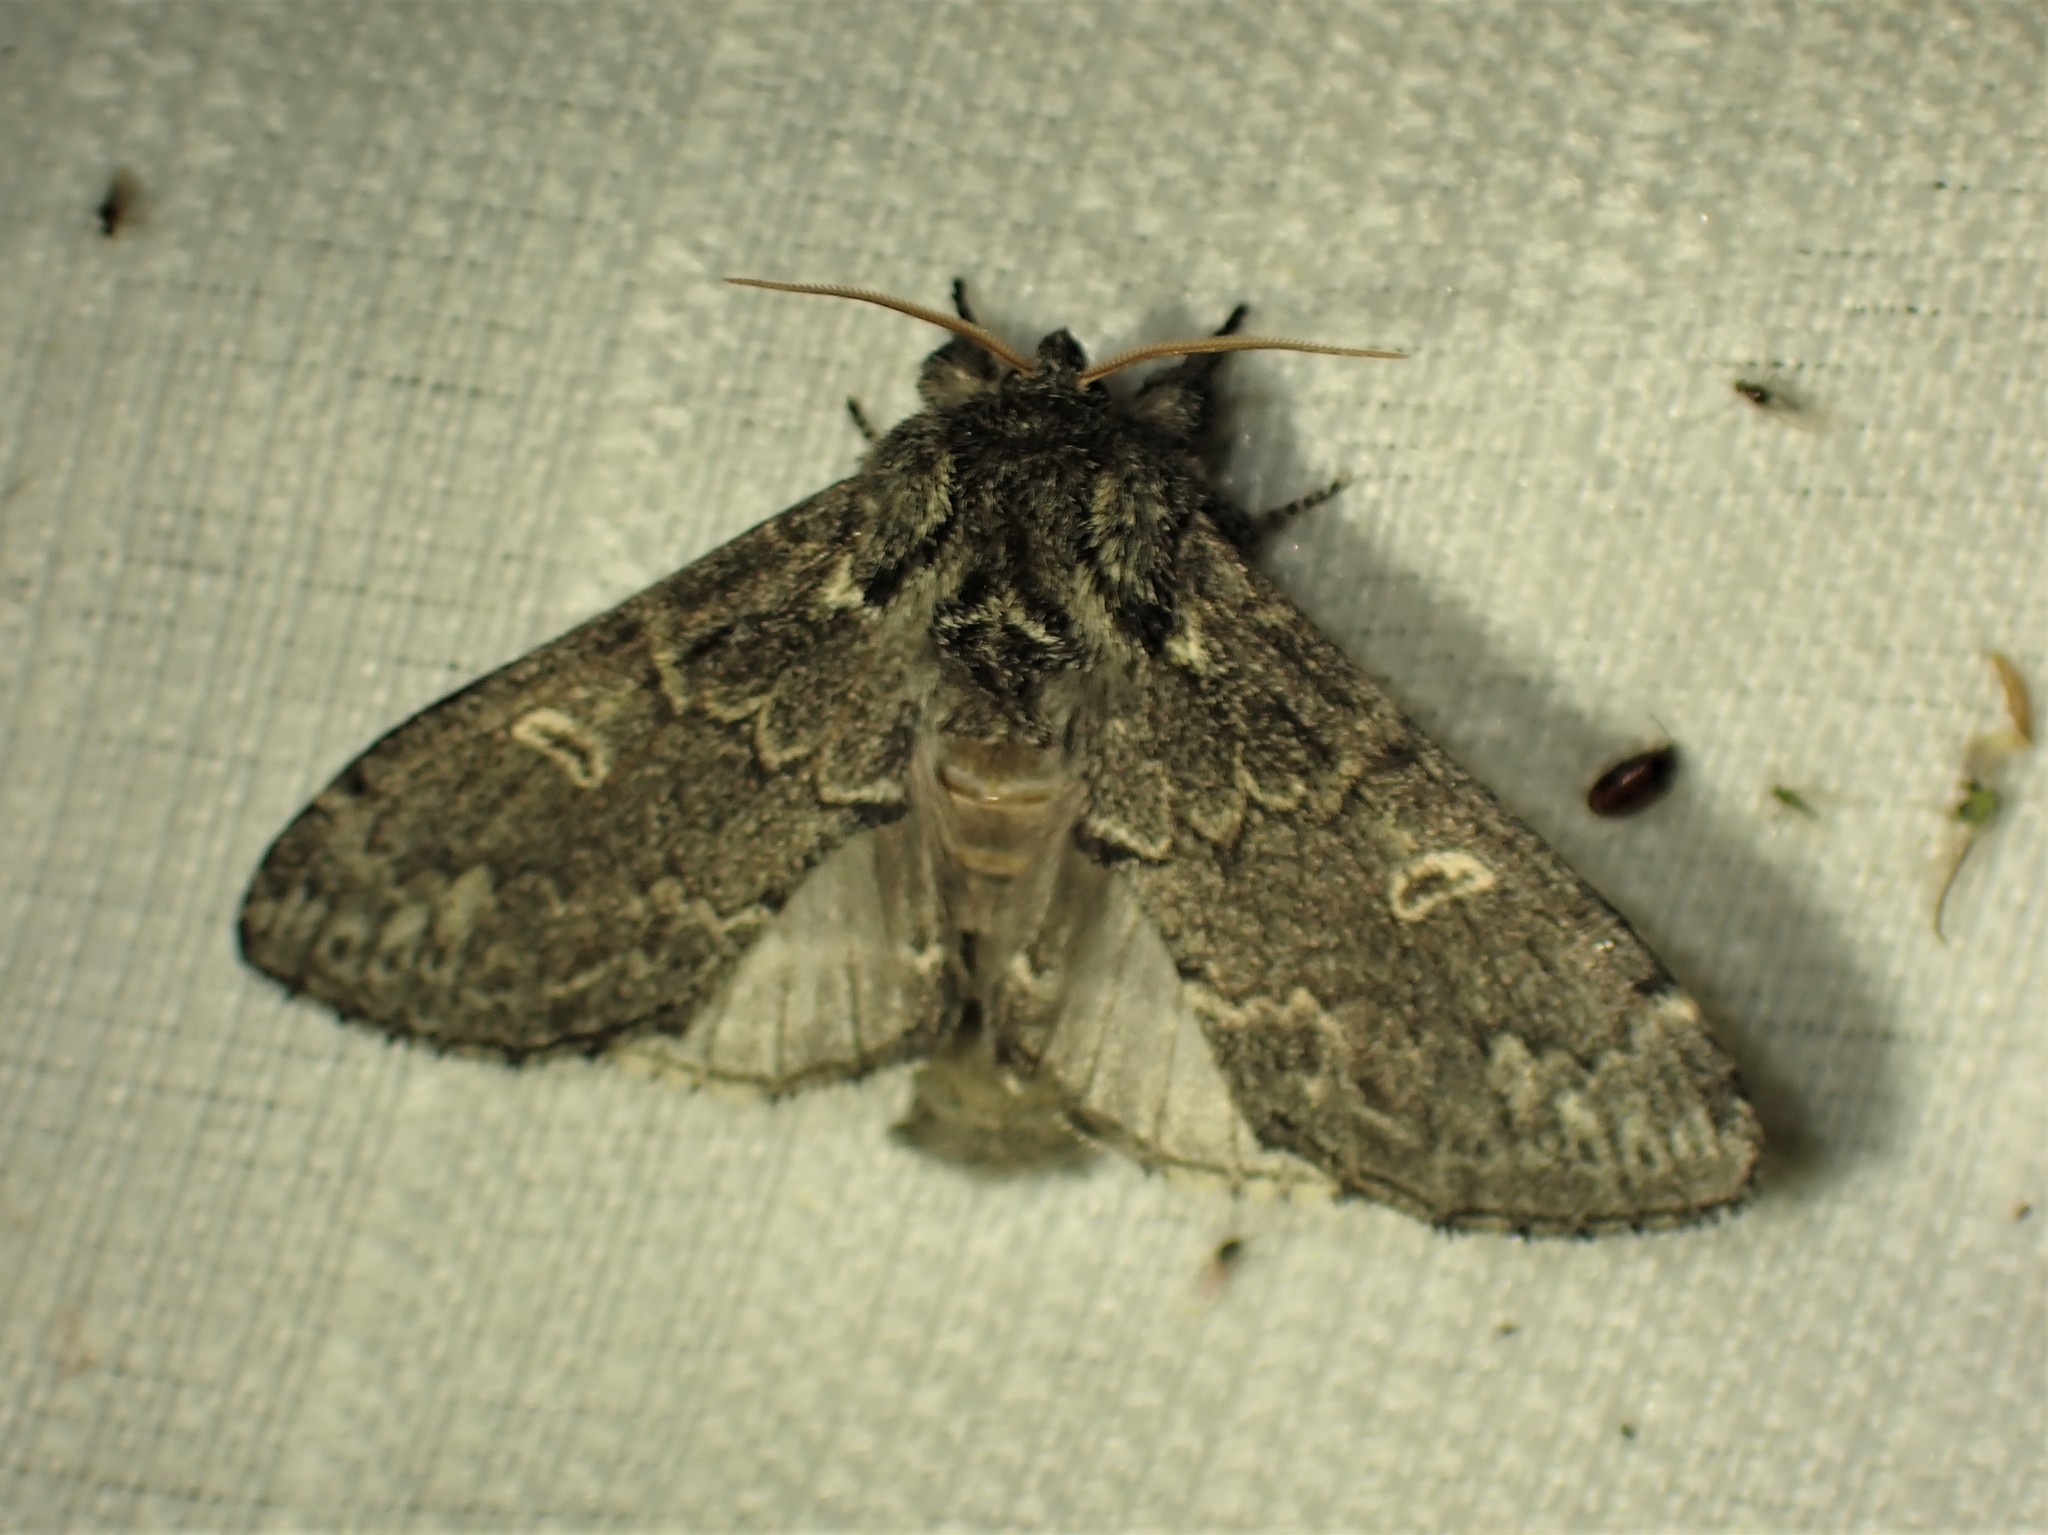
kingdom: Animalia
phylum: Arthropoda
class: Insecta
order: Lepidoptera
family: Notodontidae
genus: Notodonta
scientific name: Notodonta torva
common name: Large dark prominent
